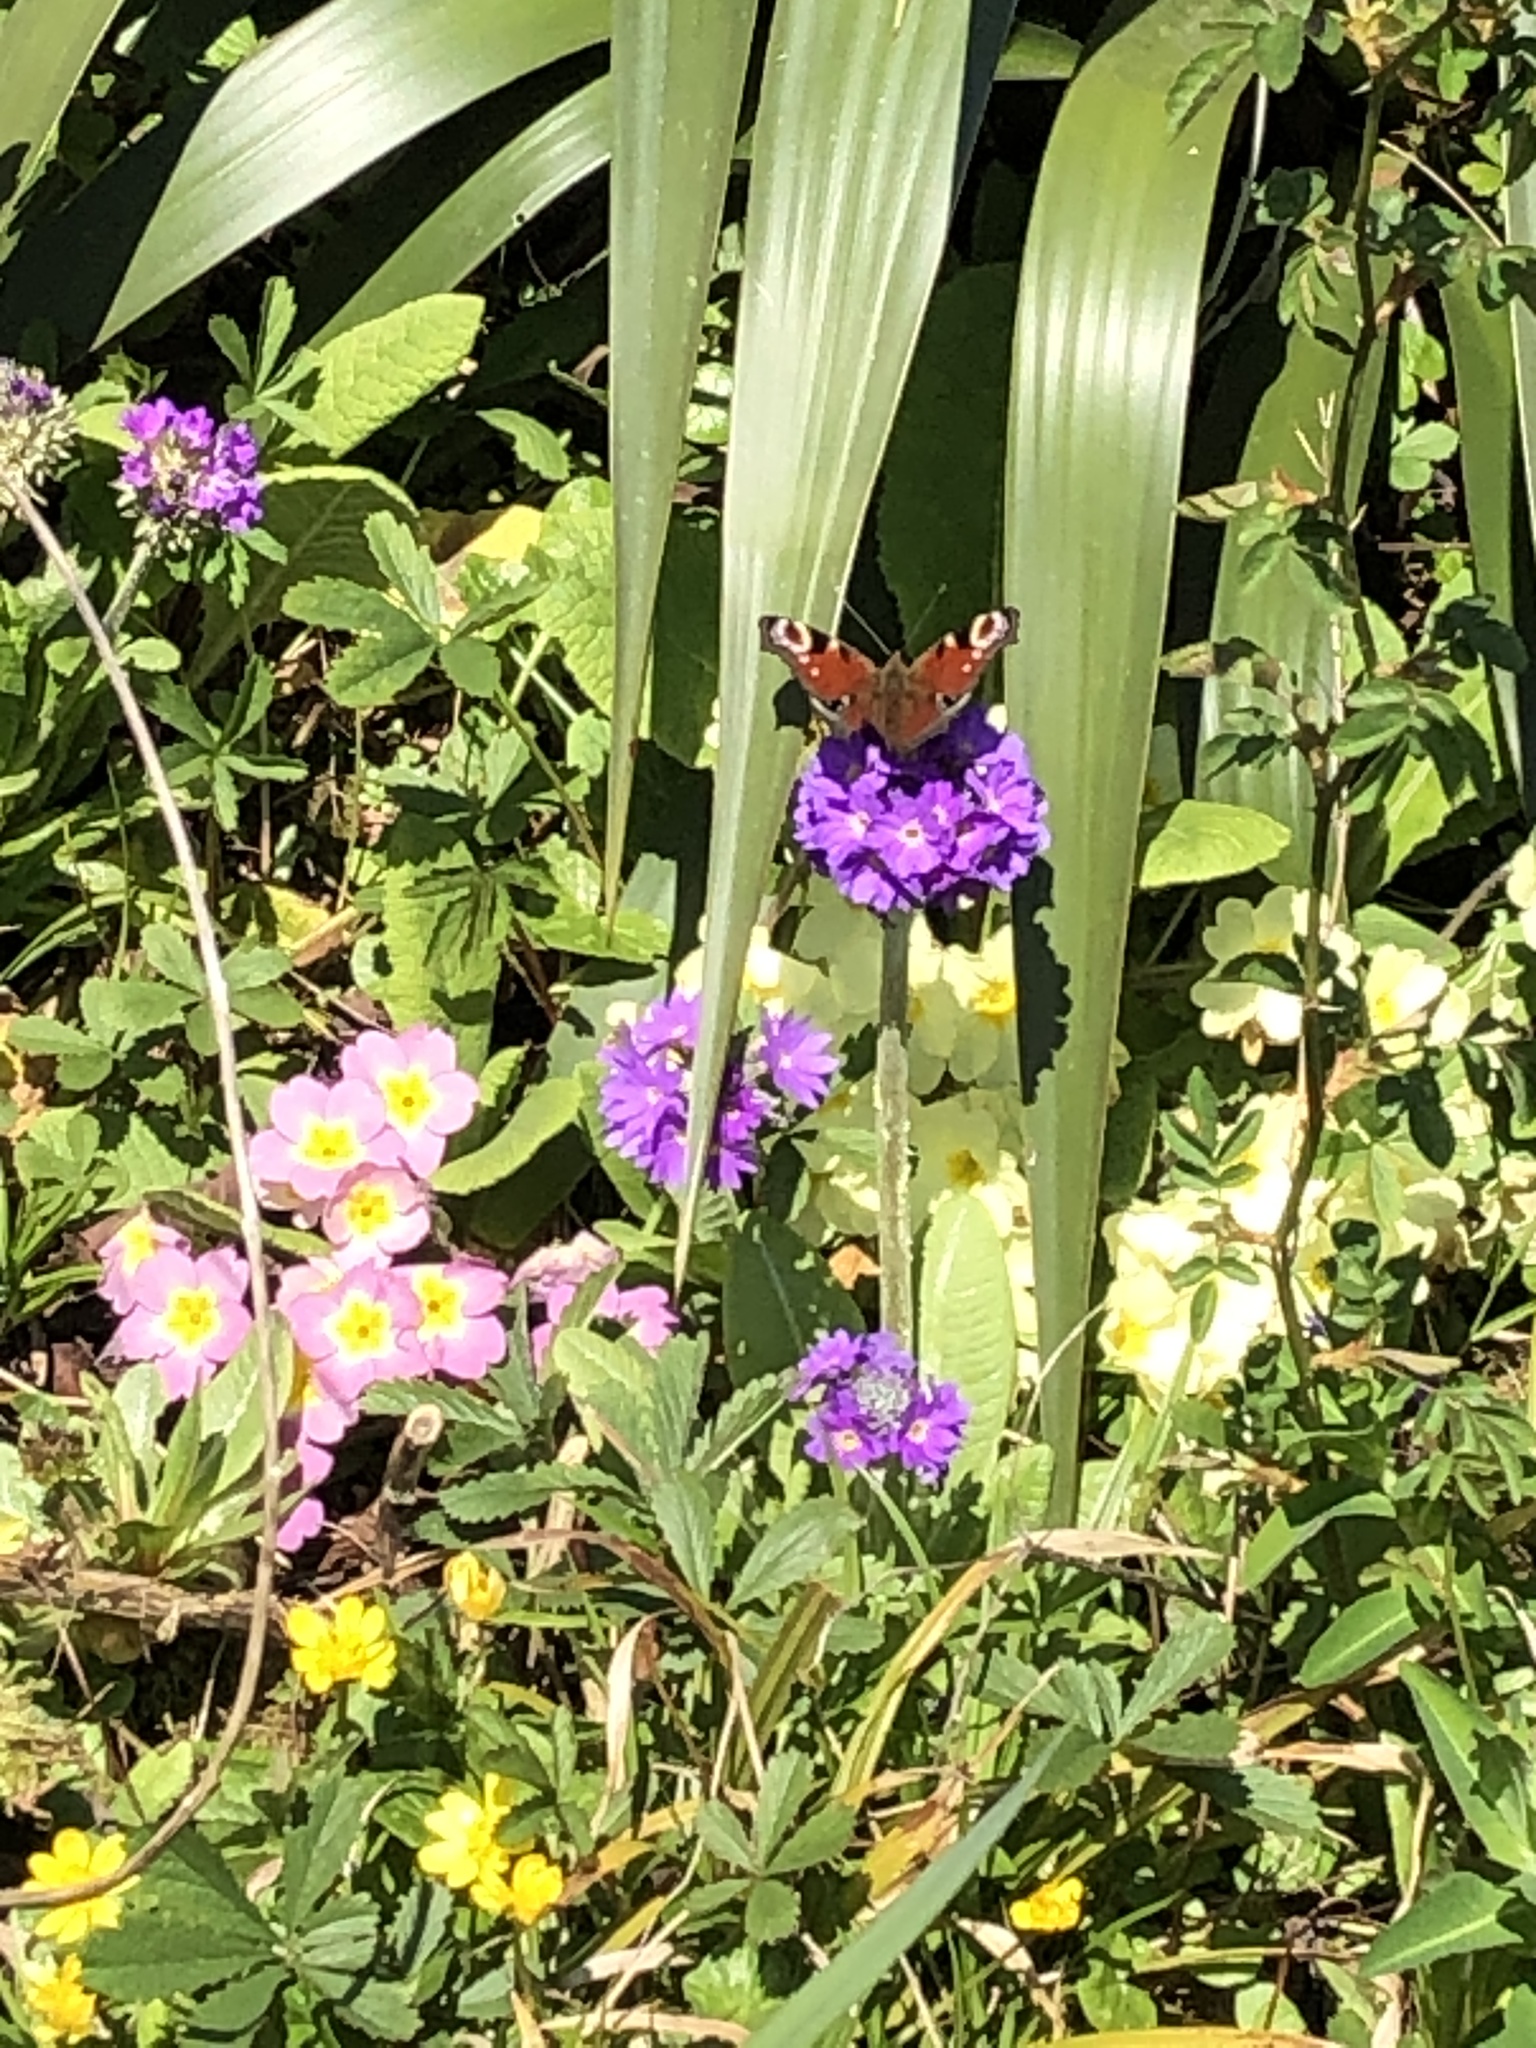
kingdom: Animalia
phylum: Arthropoda
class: Insecta
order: Lepidoptera
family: Nymphalidae
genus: Aglais
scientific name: Aglais io
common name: Peacock
